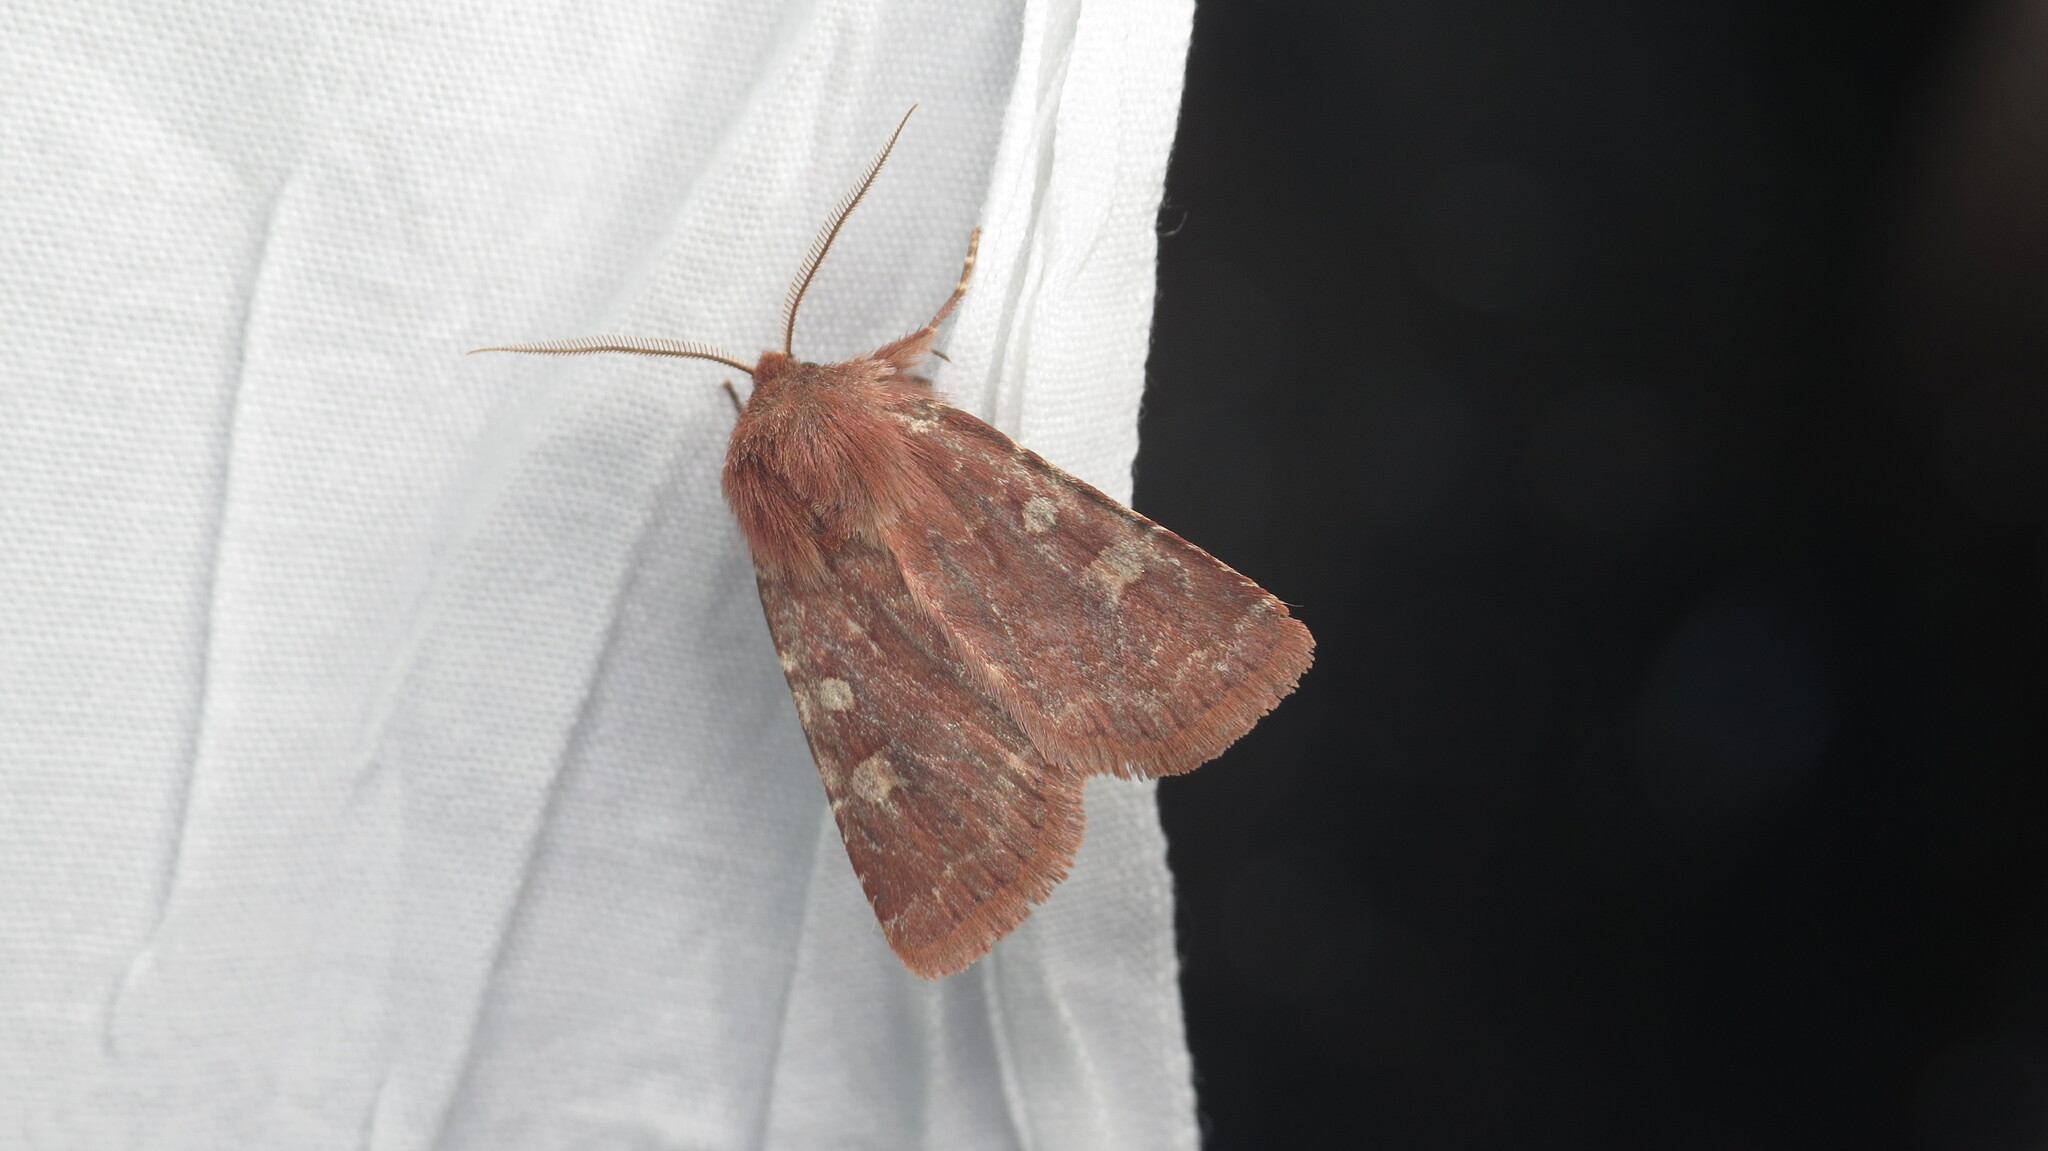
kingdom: Animalia
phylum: Arthropoda
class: Insecta
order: Lepidoptera
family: Noctuidae
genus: Cerastis
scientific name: Cerastis tenebrifera
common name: Reddish speckled dart
